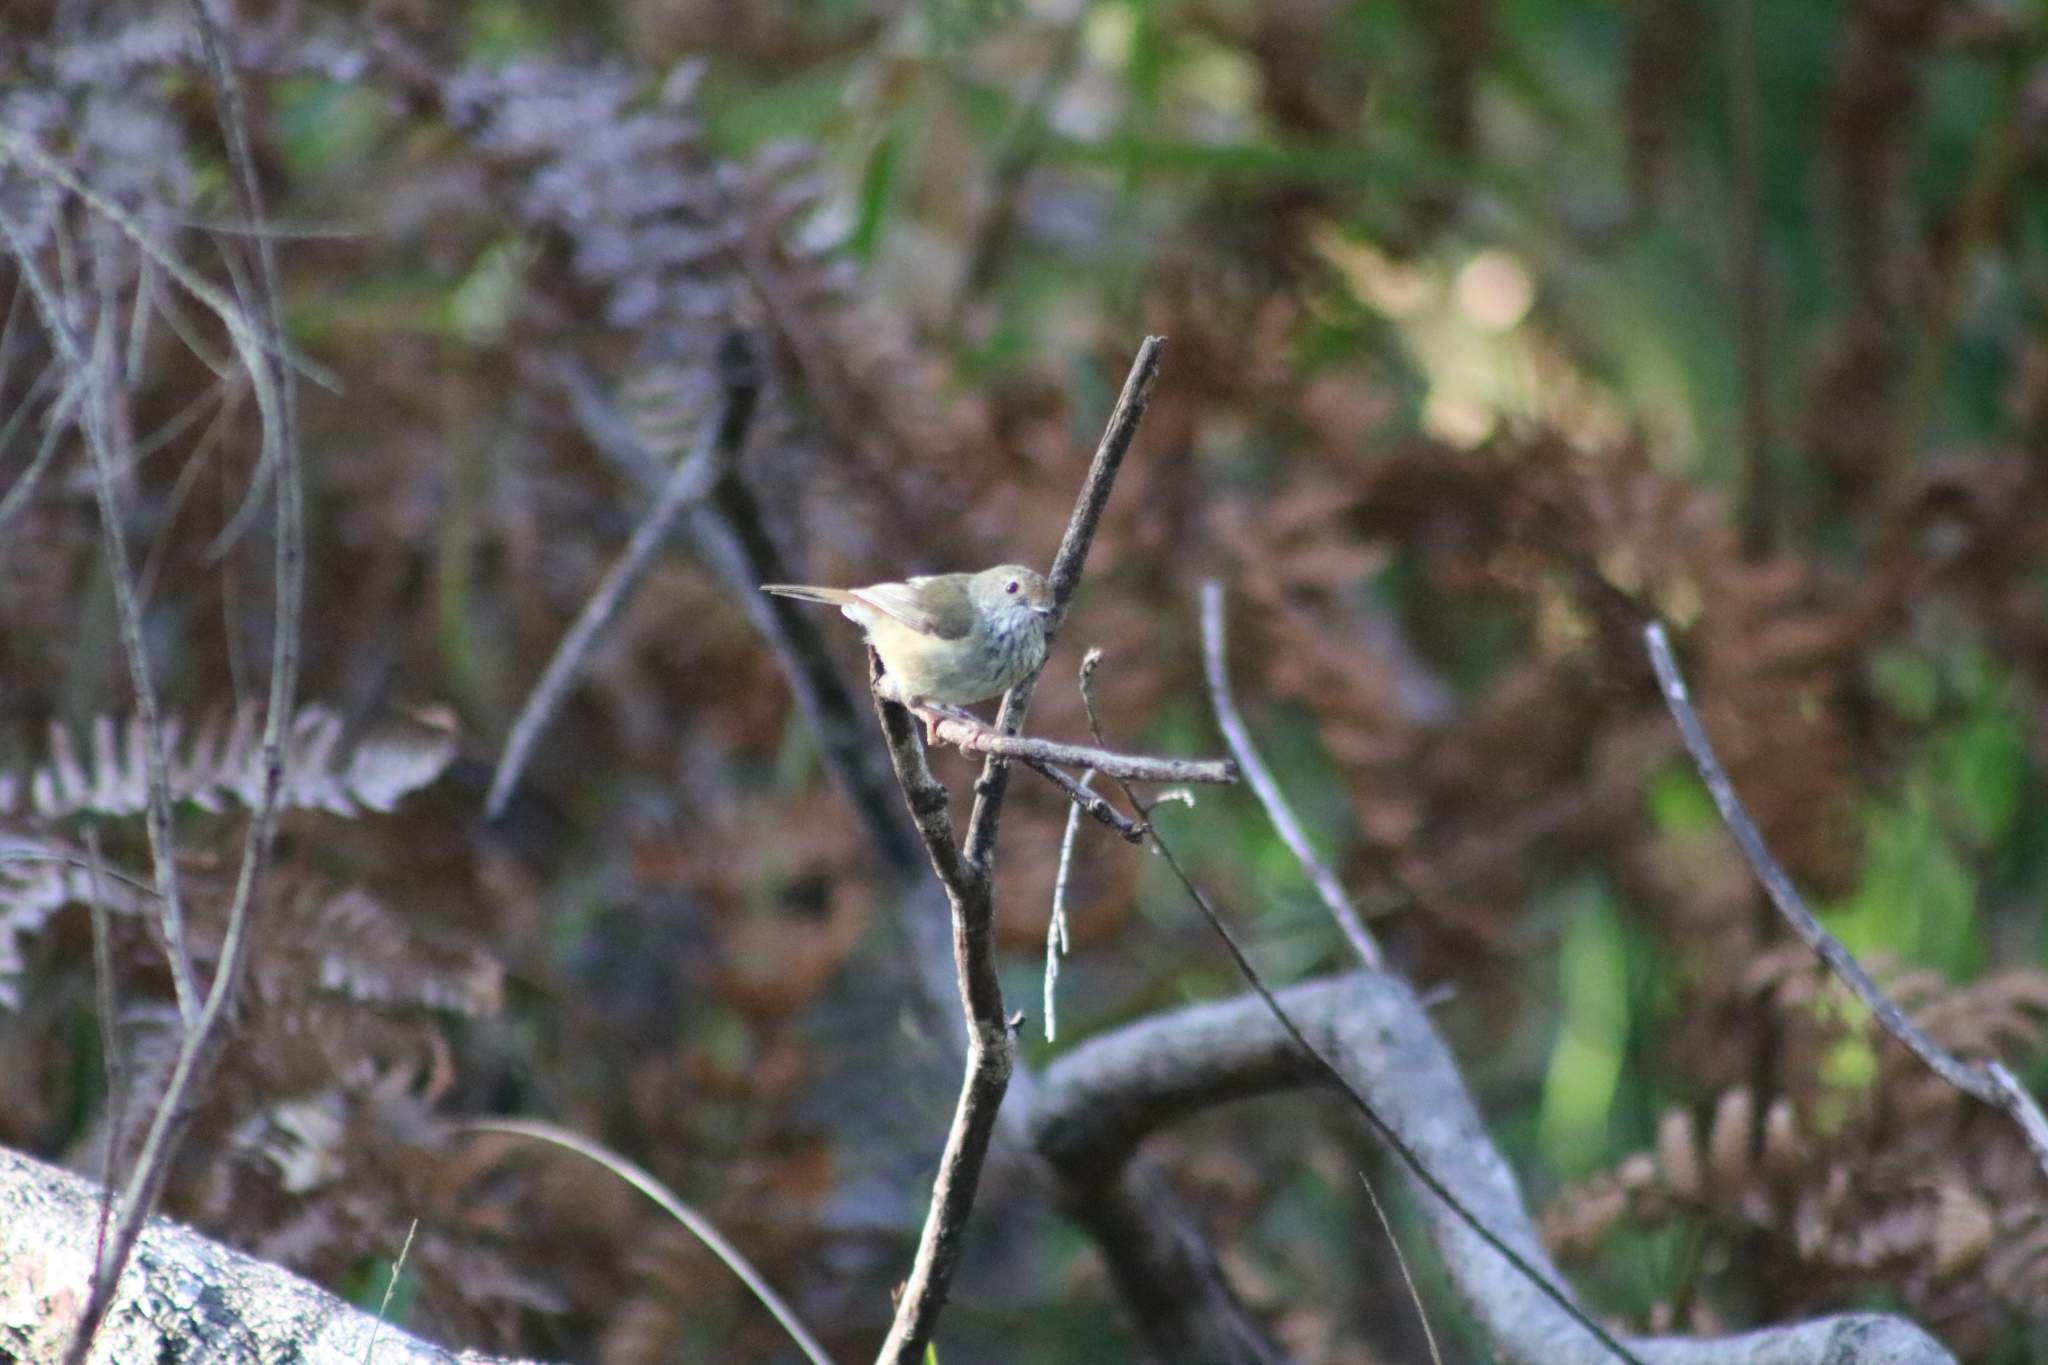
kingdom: Animalia
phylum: Chordata
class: Aves
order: Passeriformes
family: Acanthizidae
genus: Acanthiza
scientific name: Acanthiza pusilla
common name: Brown thornbill
